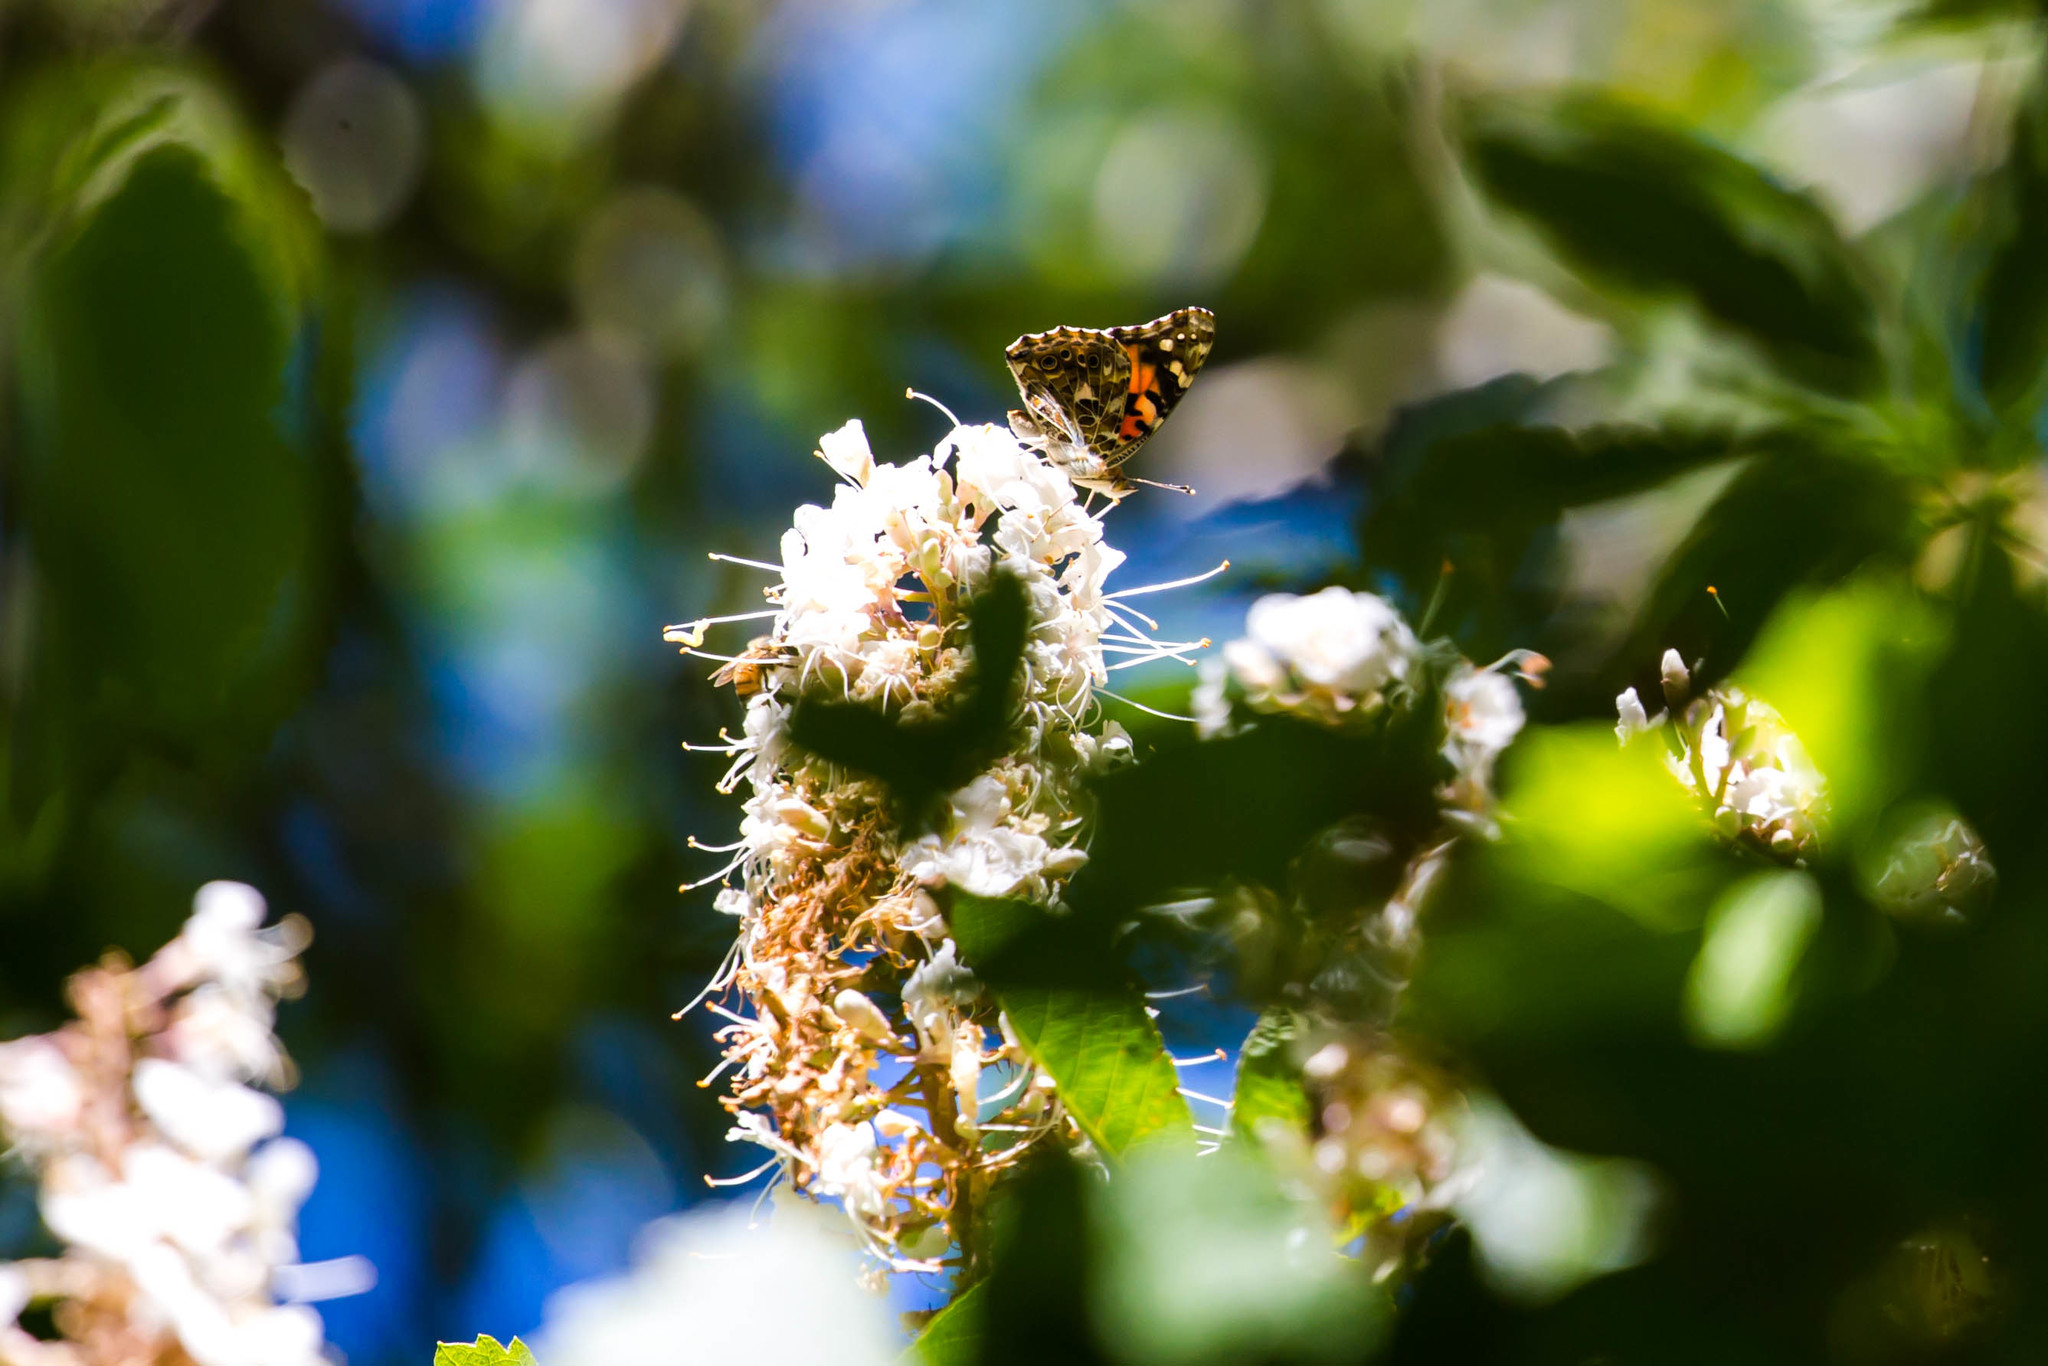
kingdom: Animalia
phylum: Arthropoda
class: Insecta
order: Lepidoptera
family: Nymphalidae
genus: Vanessa
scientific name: Vanessa cardui
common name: Painted lady
